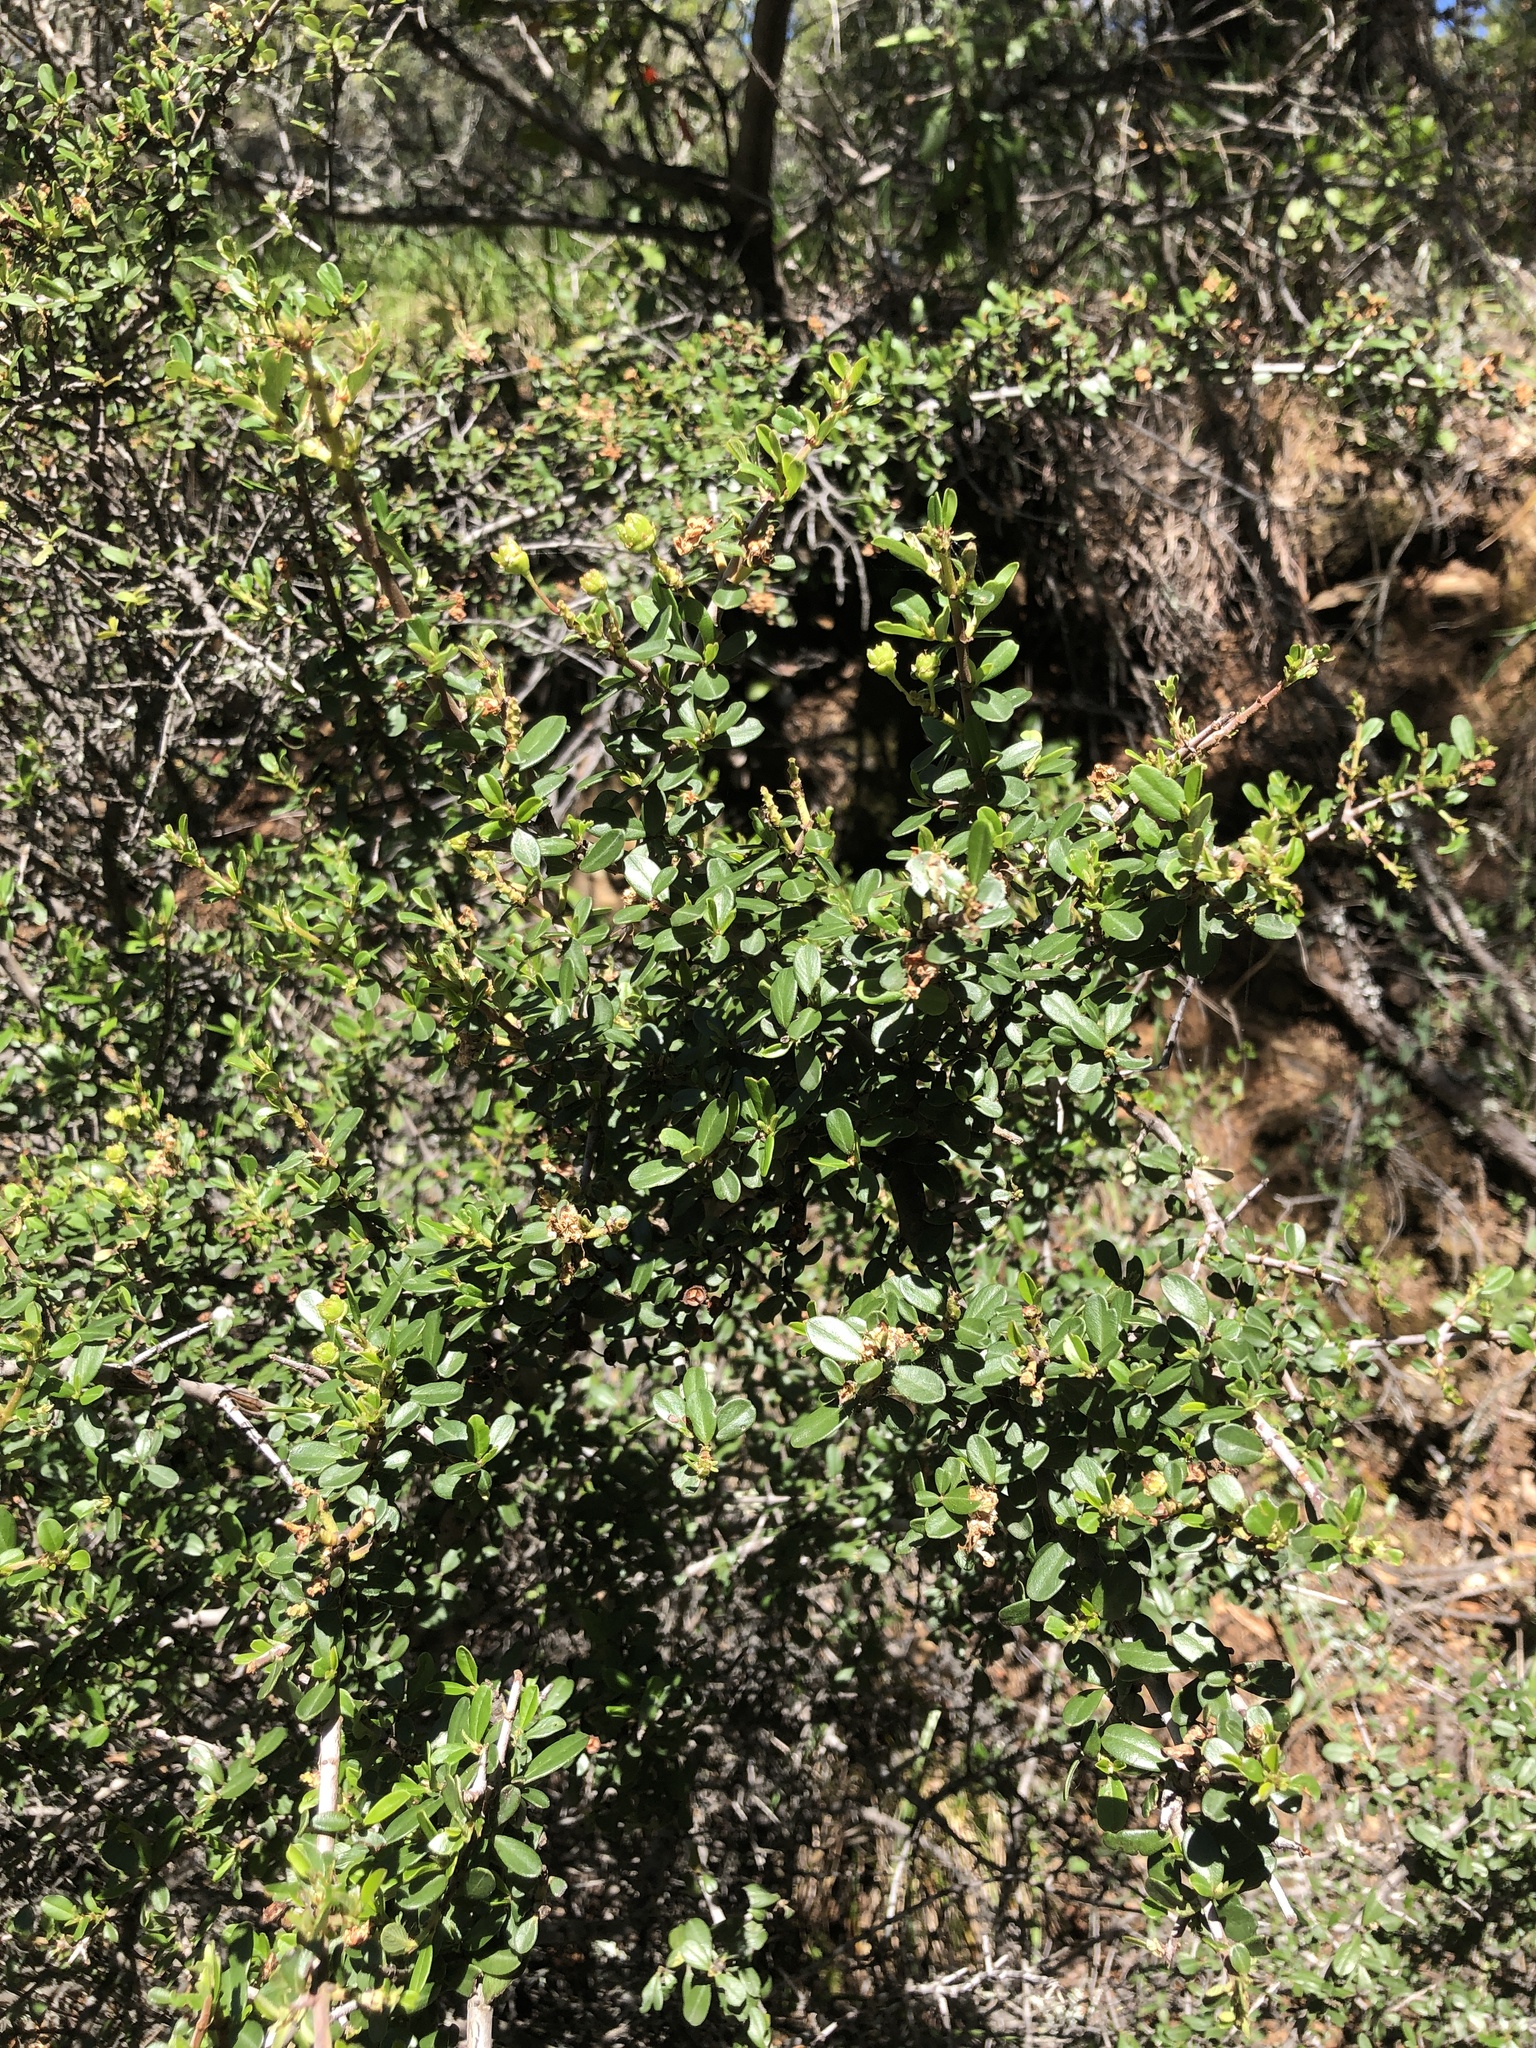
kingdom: Plantae
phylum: Tracheophyta
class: Magnoliopsida
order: Rosales
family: Rhamnaceae
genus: Ceanothus
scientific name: Ceanothus cuneatus
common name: Cuneate ceanothus
